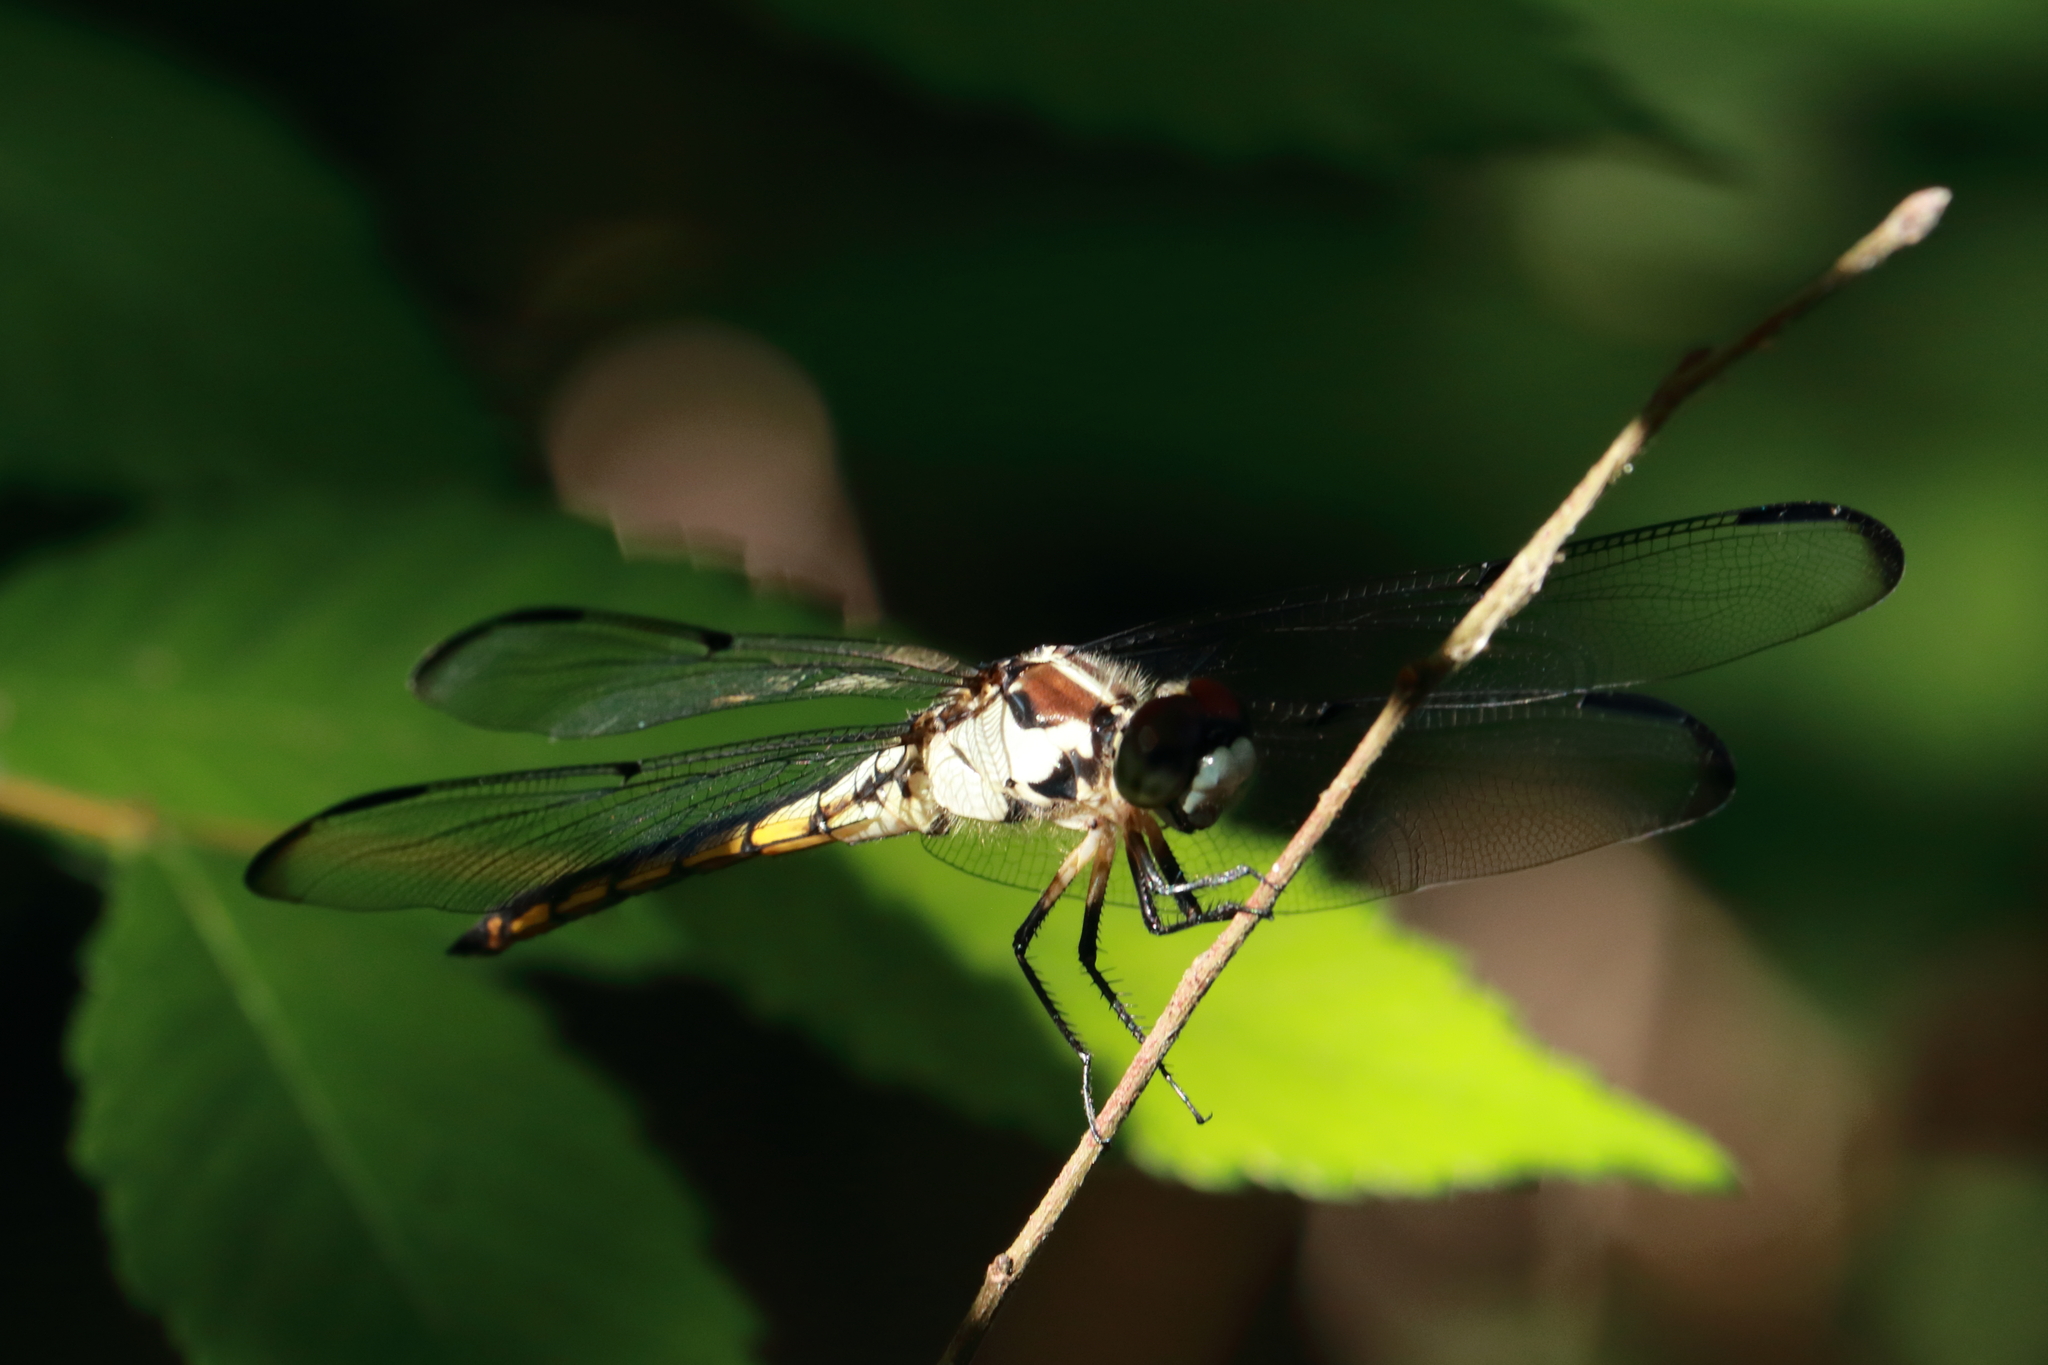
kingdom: Animalia
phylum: Arthropoda
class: Insecta
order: Odonata
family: Libellulidae
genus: Libellula
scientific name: Libellula vibrans
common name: Great blue skimmer
